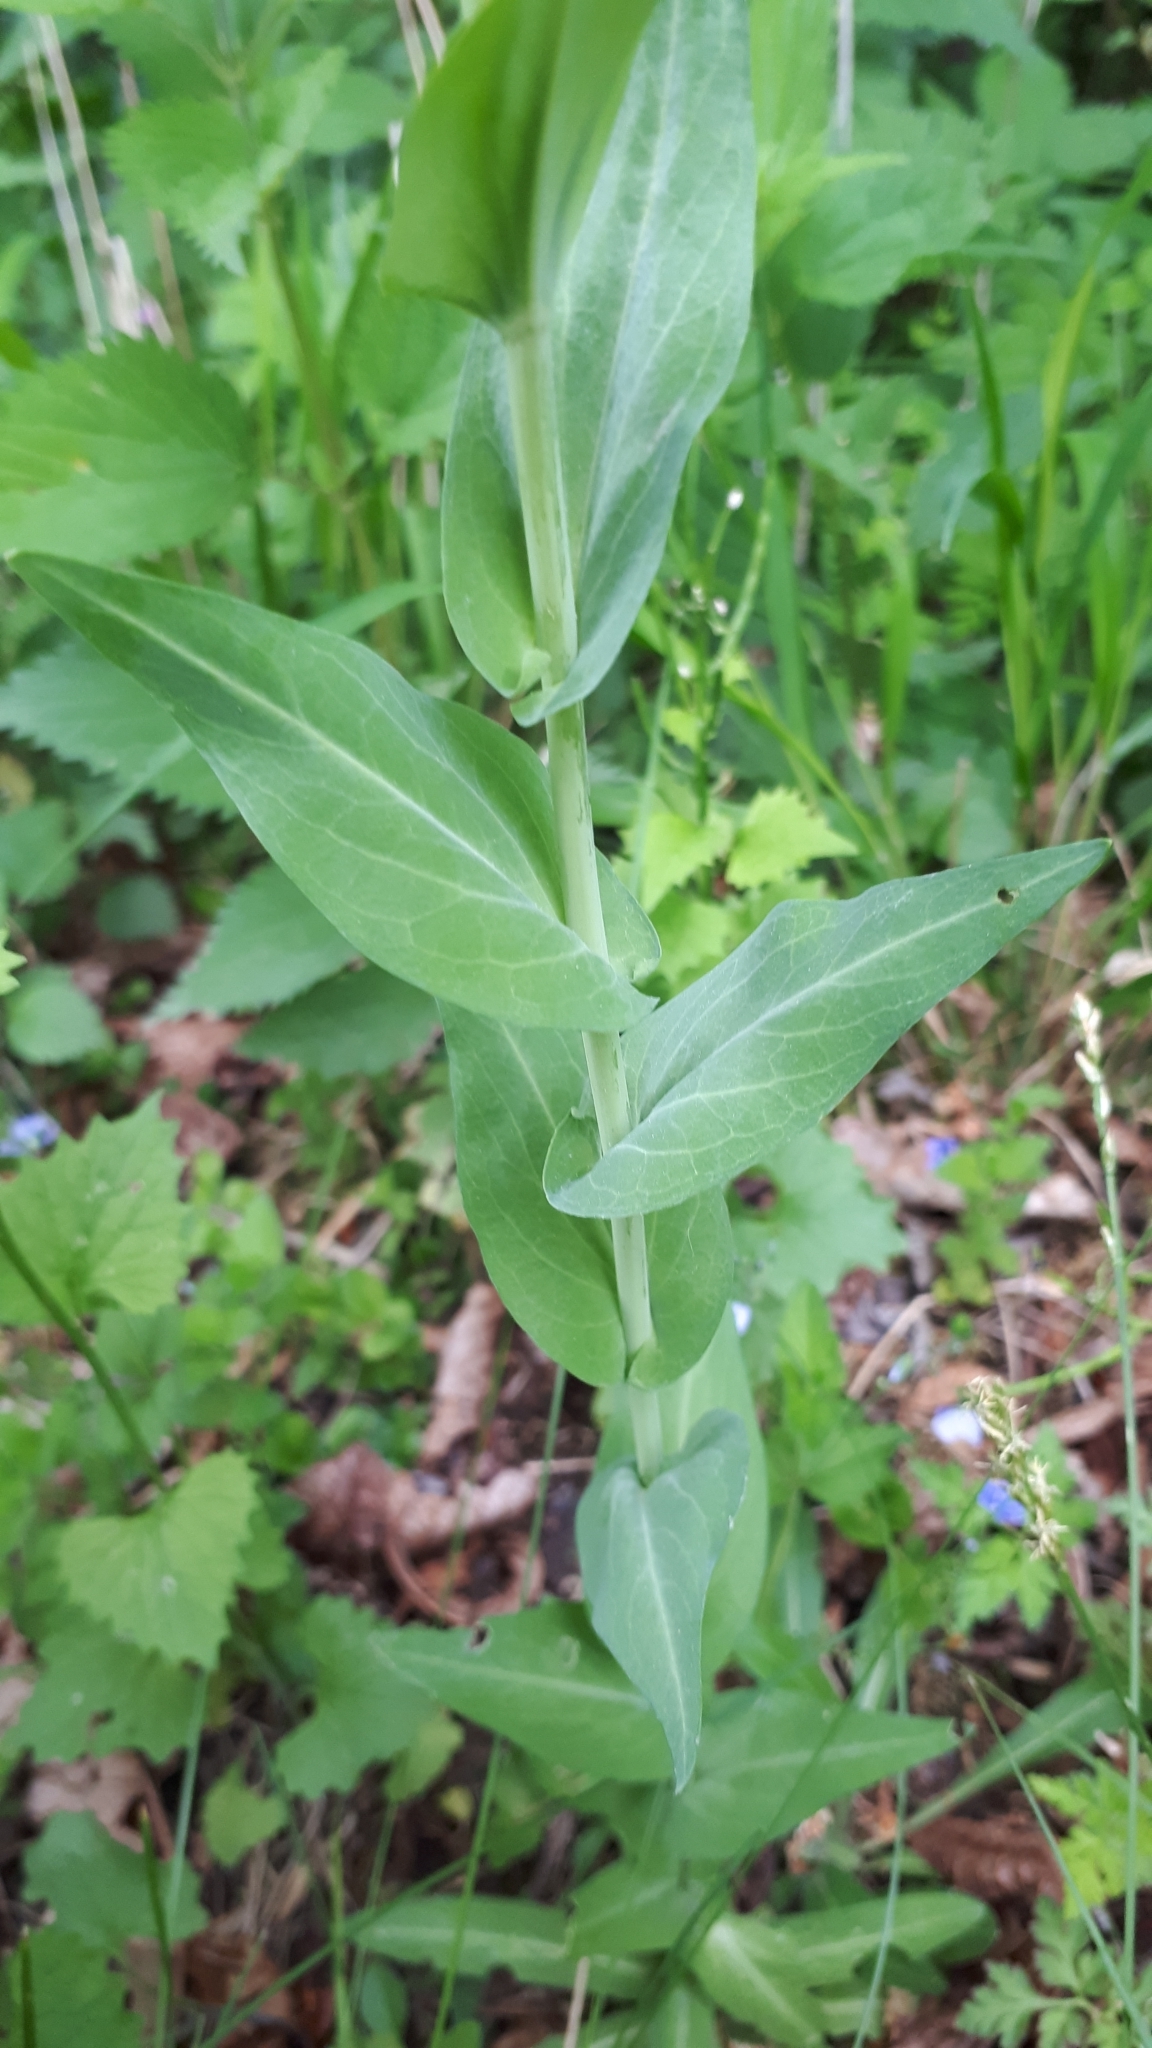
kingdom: Plantae
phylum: Tracheophyta
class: Magnoliopsida
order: Brassicales
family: Brassicaceae
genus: Turritis
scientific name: Turritis glabra
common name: Tower rockcress
